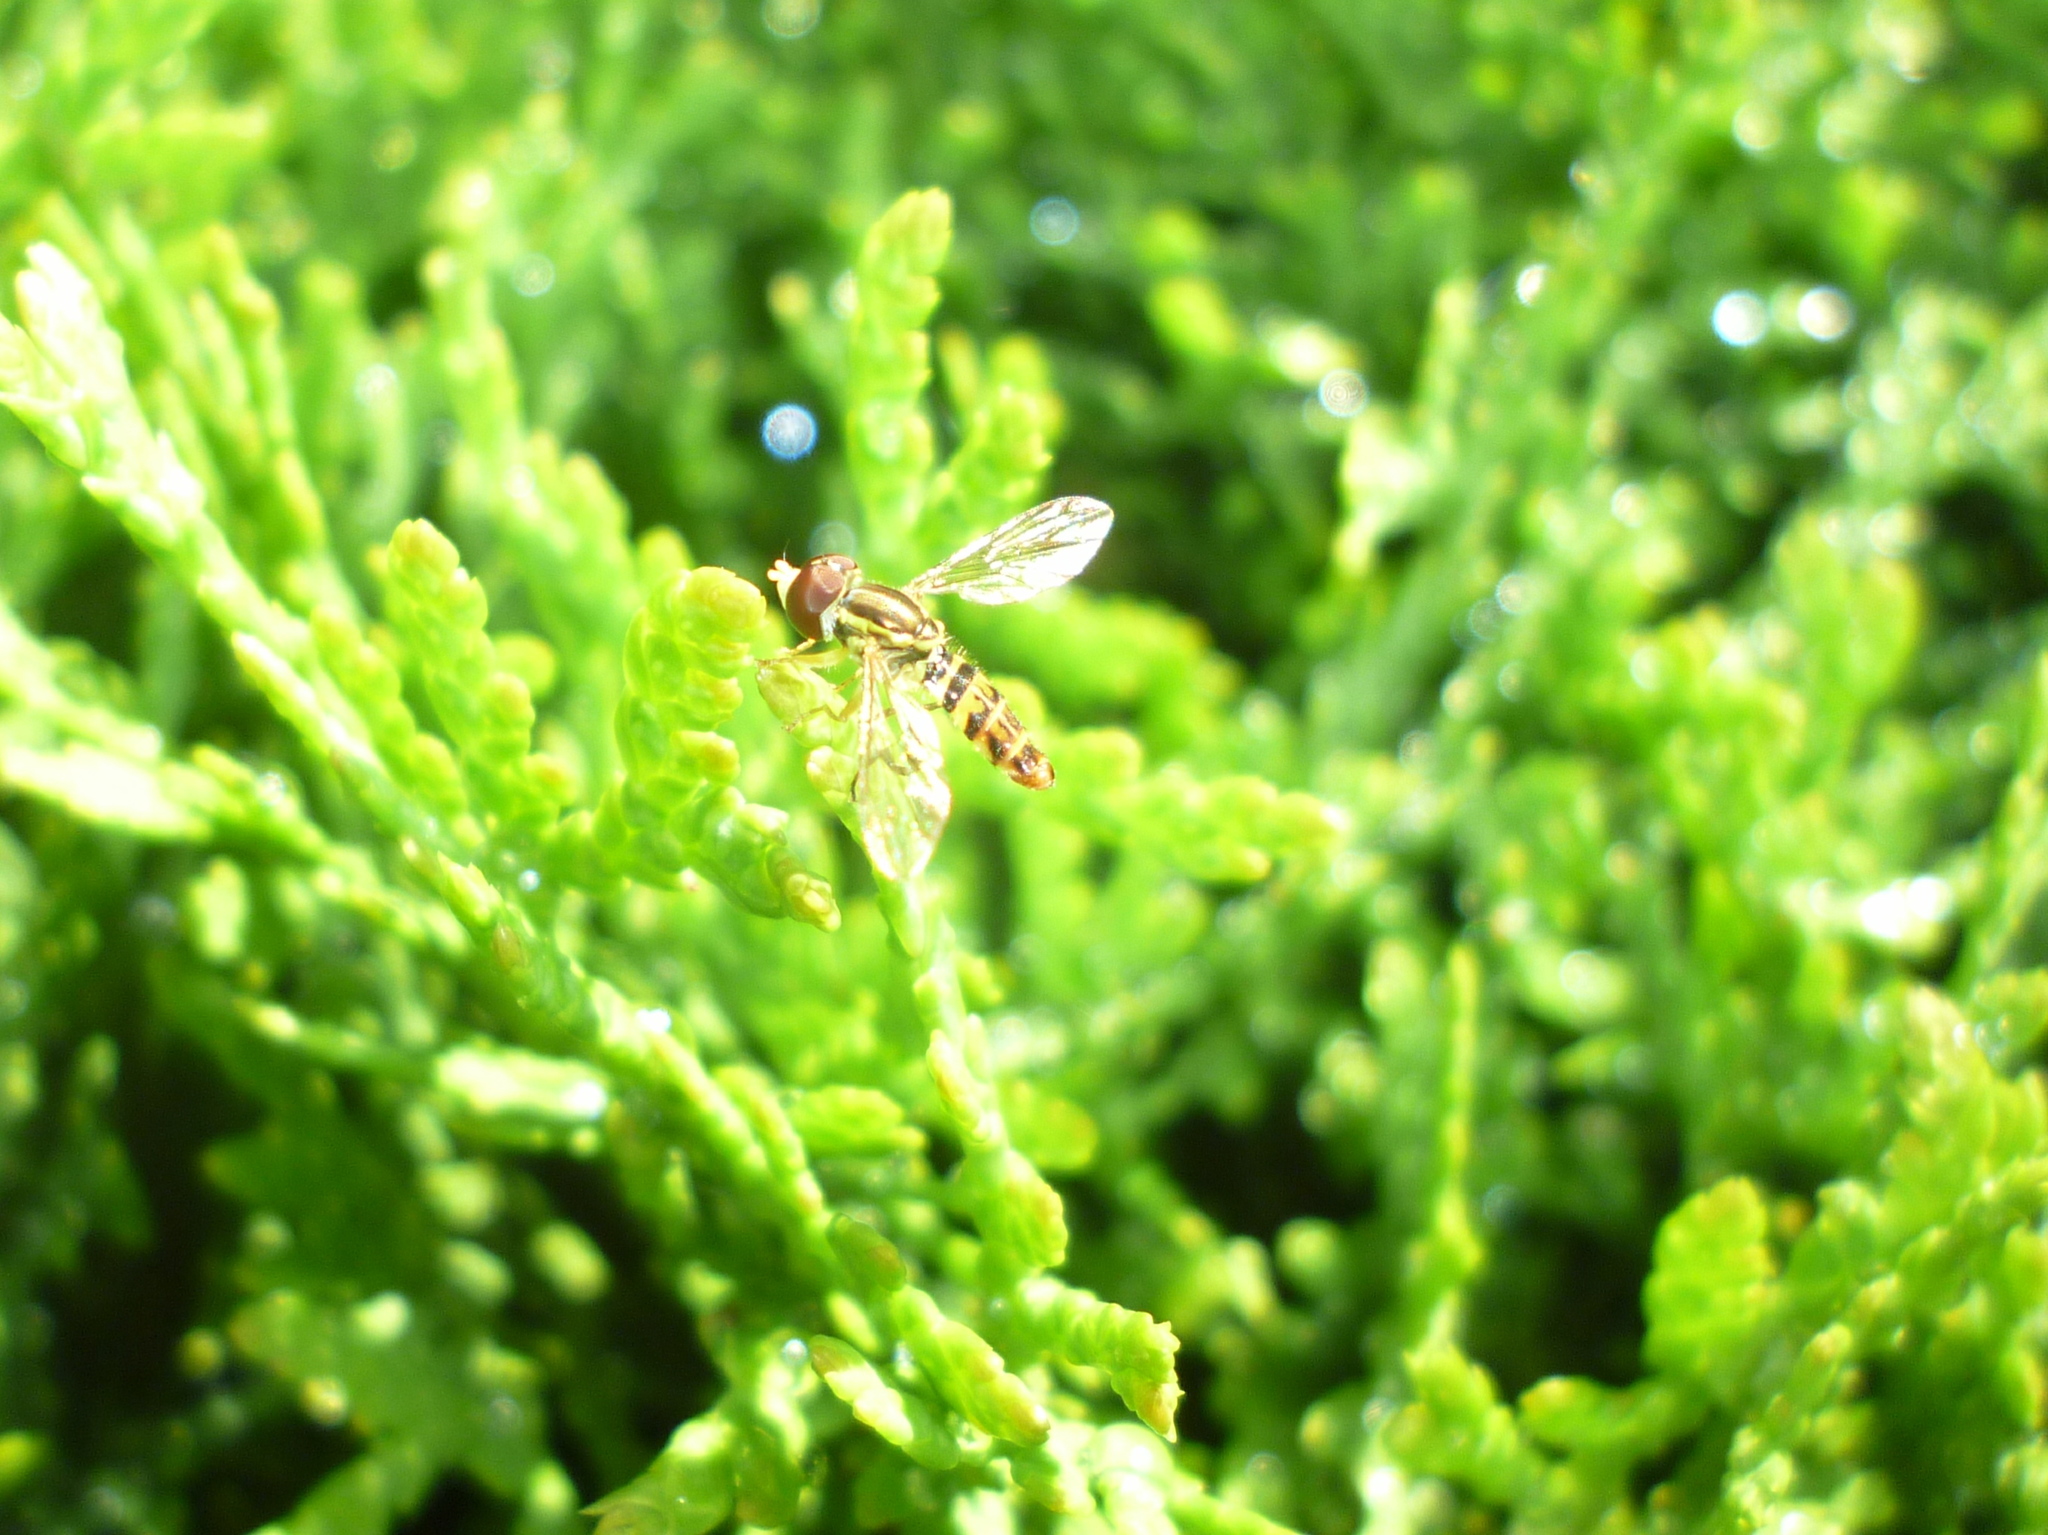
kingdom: Animalia
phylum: Arthropoda
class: Insecta
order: Diptera
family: Syrphidae
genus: Toxomerus
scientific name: Toxomerus geminatus
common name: Eastern calligrapher
